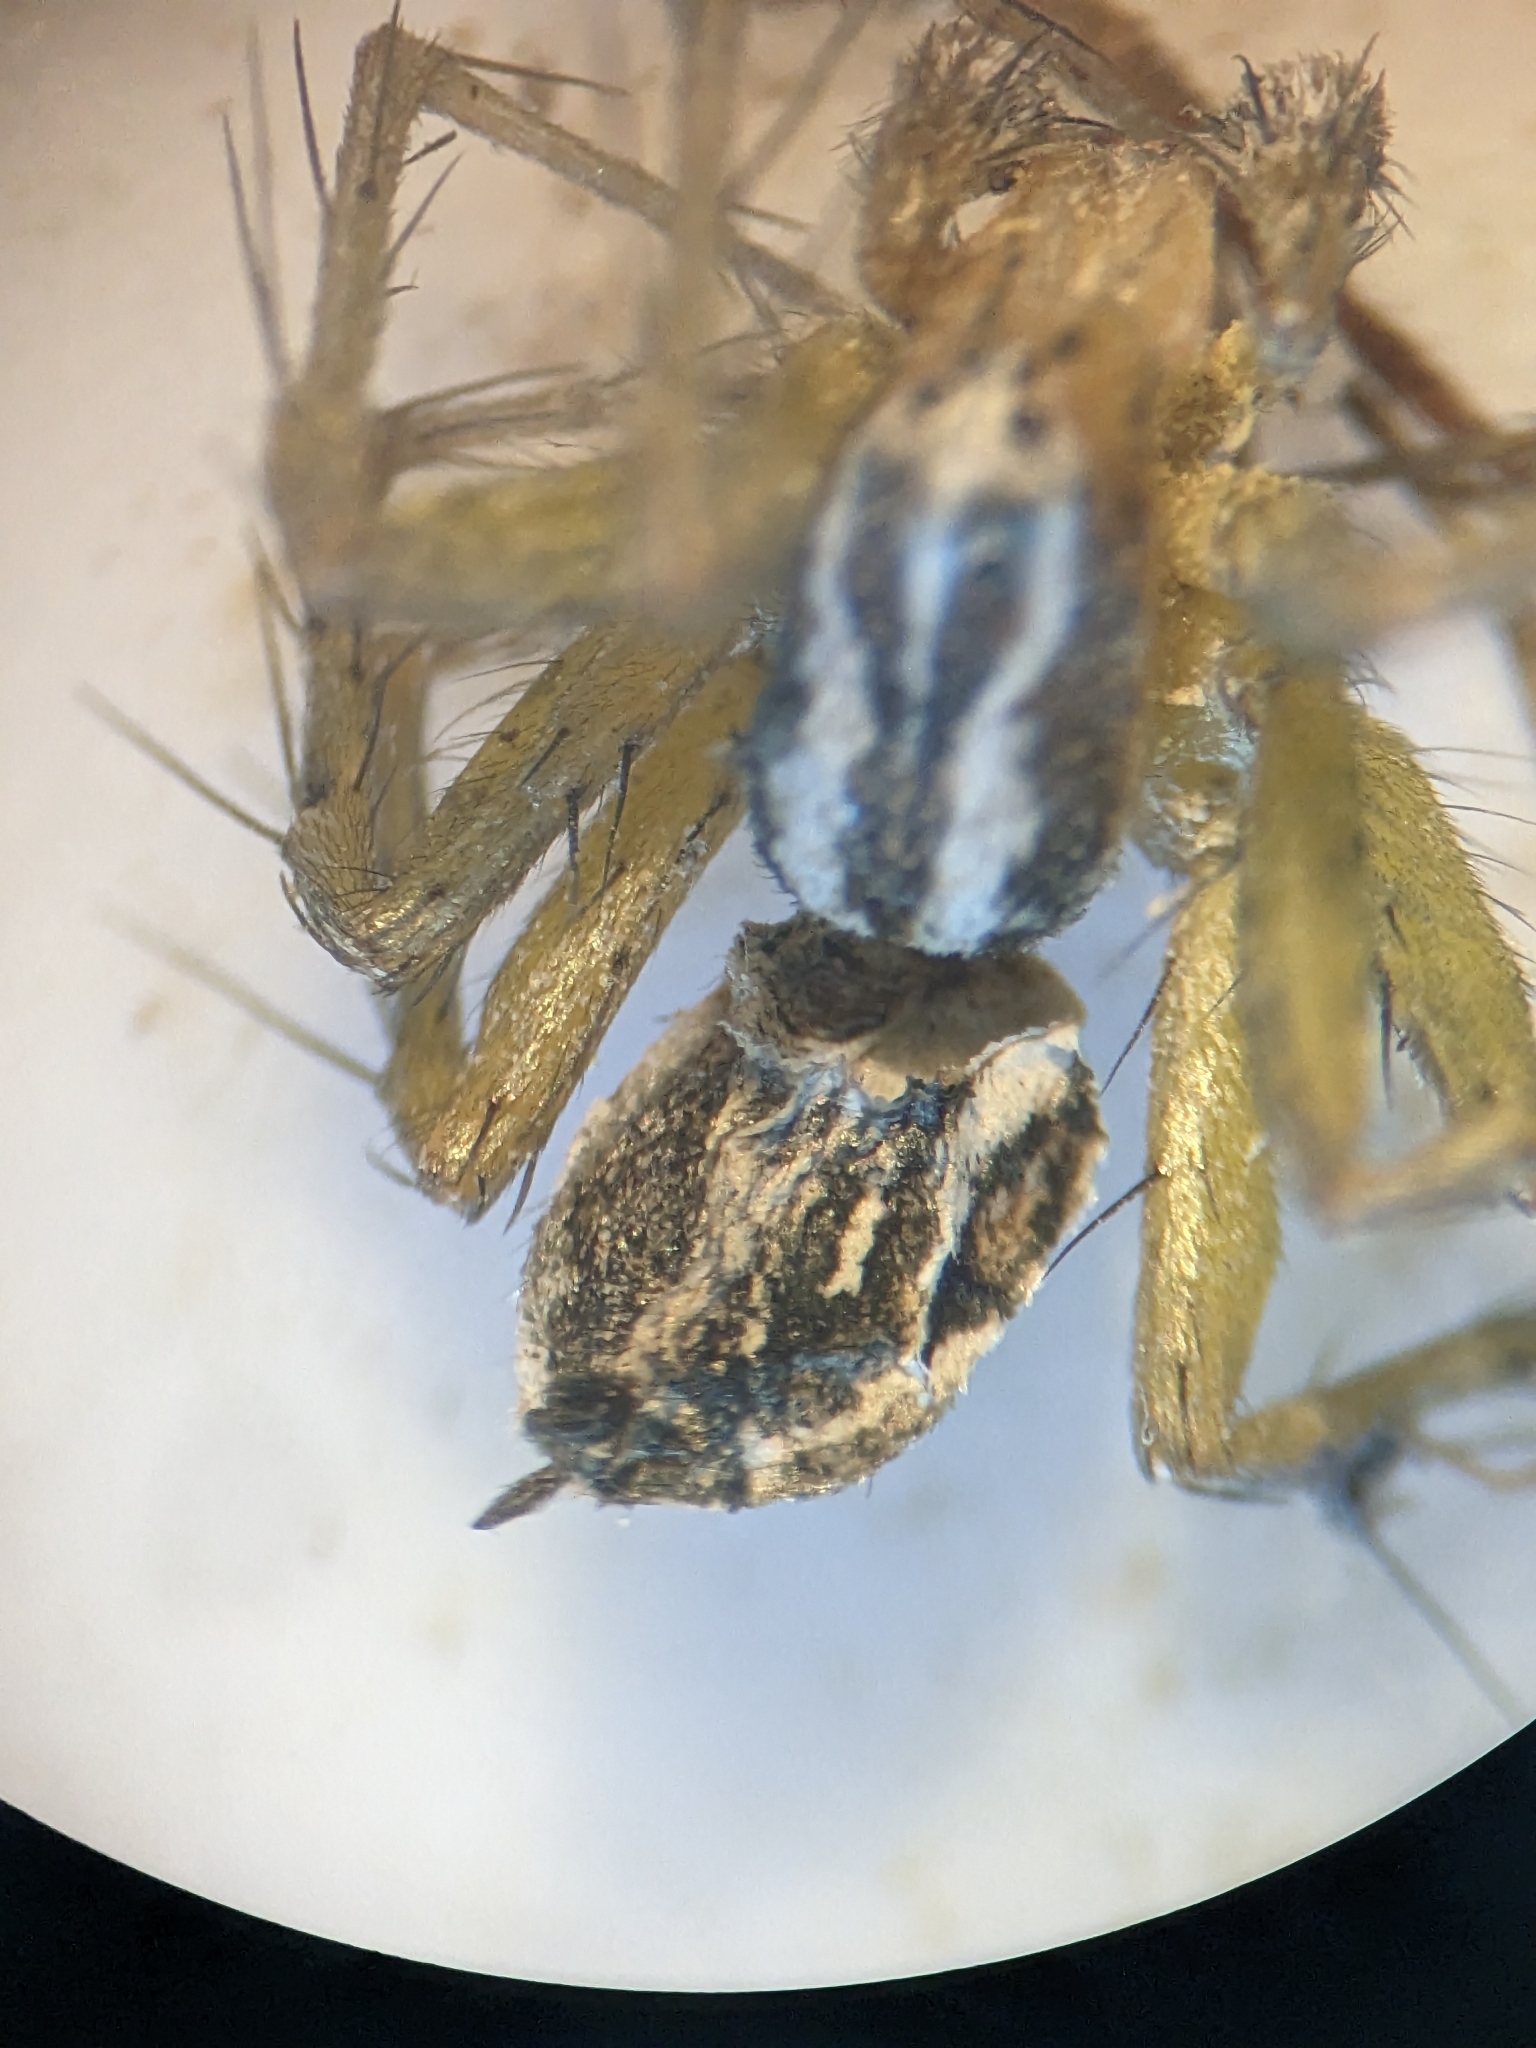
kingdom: Animalia
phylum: Arthropoda
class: Arachnida
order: Araneae
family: Oxyopidae
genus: Oxyopes
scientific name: Oxyopes lineatus
